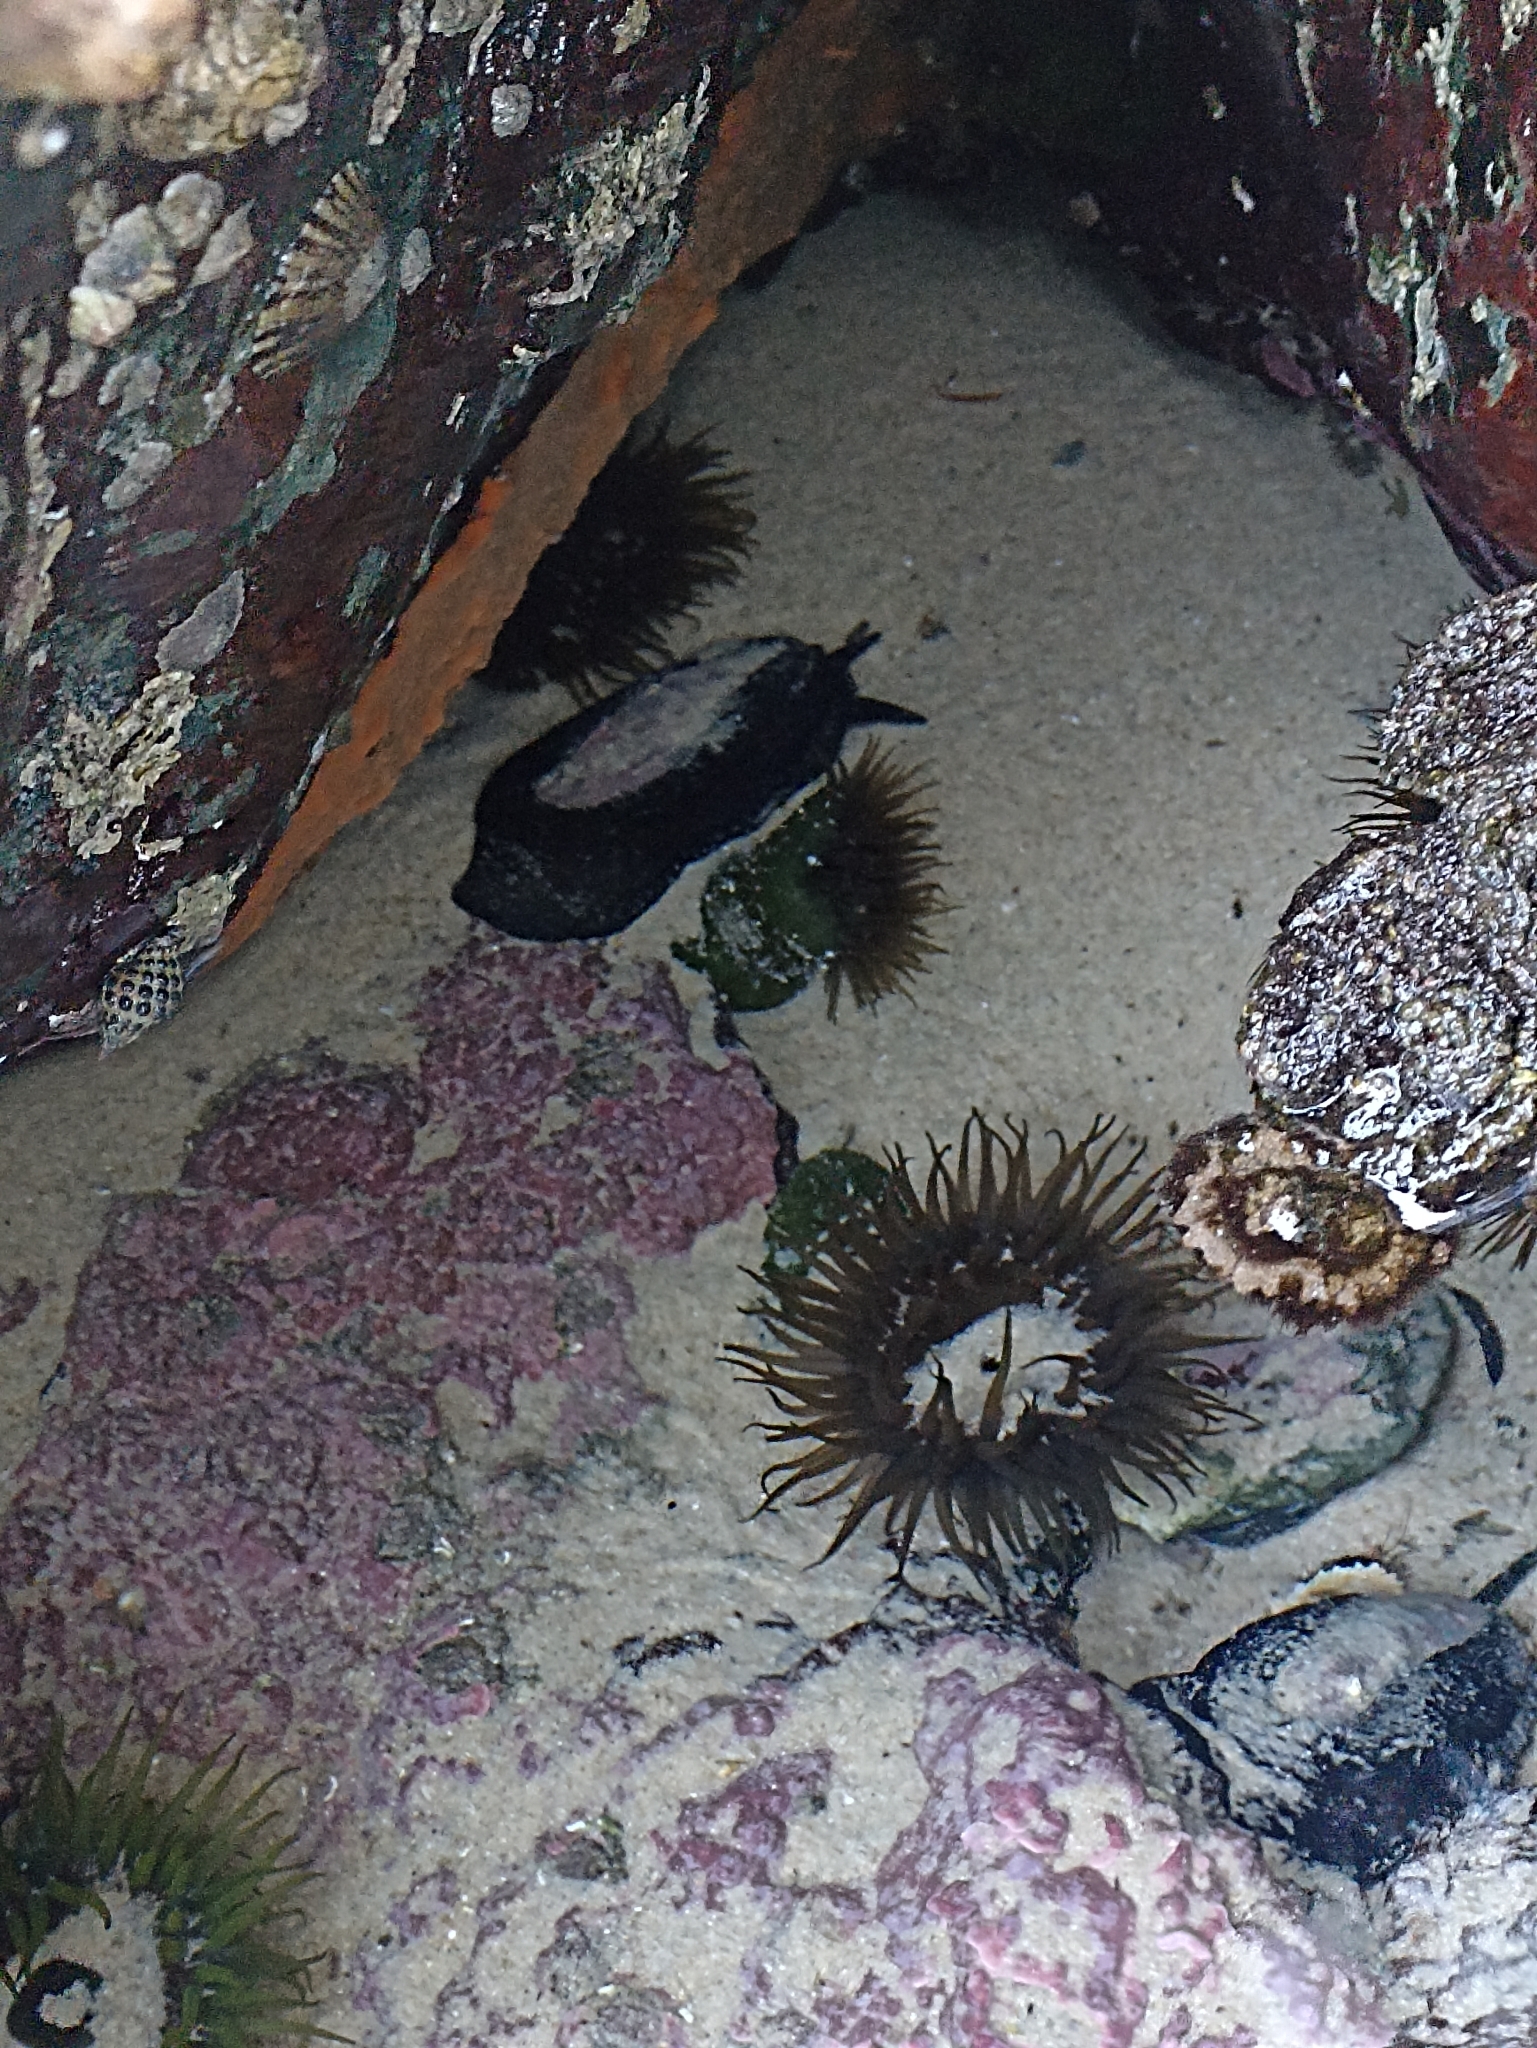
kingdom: Animalia
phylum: Mollusca
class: Gastropoda
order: Lepetellida
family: Fissurellidae
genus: Scutus
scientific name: Scutus antipodes
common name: Duckbill shell
